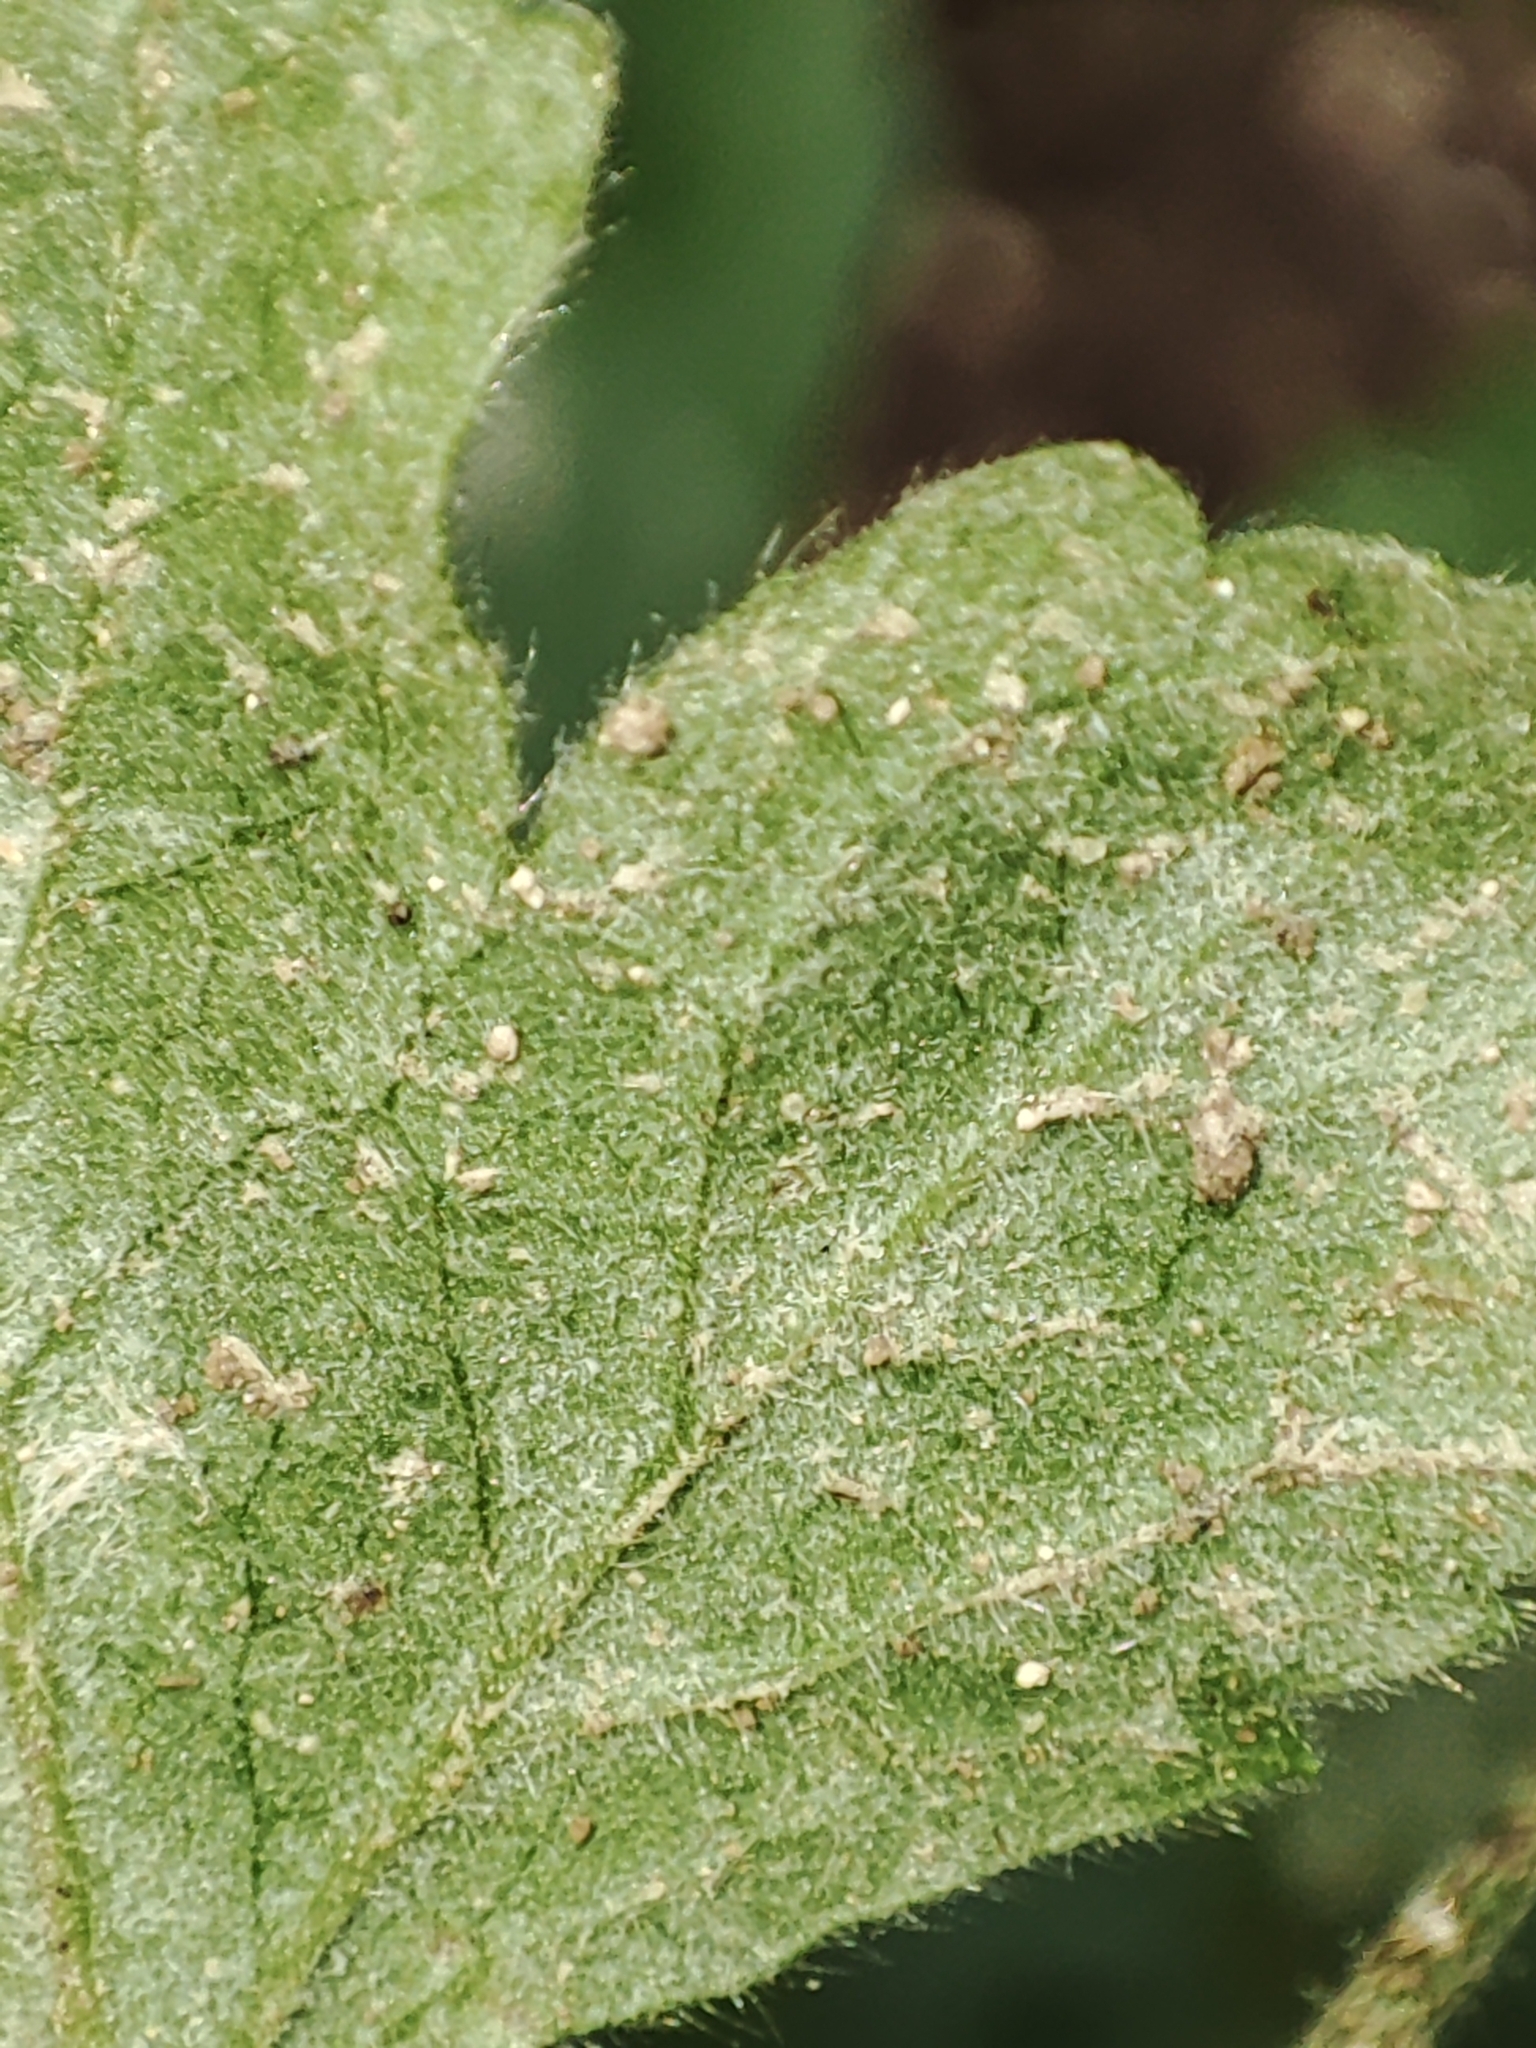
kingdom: Plantae
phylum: Tracheophyta
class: Magnoliopsida
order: Rosales
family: Rosaceae
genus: Geum
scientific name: Geum urbanum
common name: Wood avens
